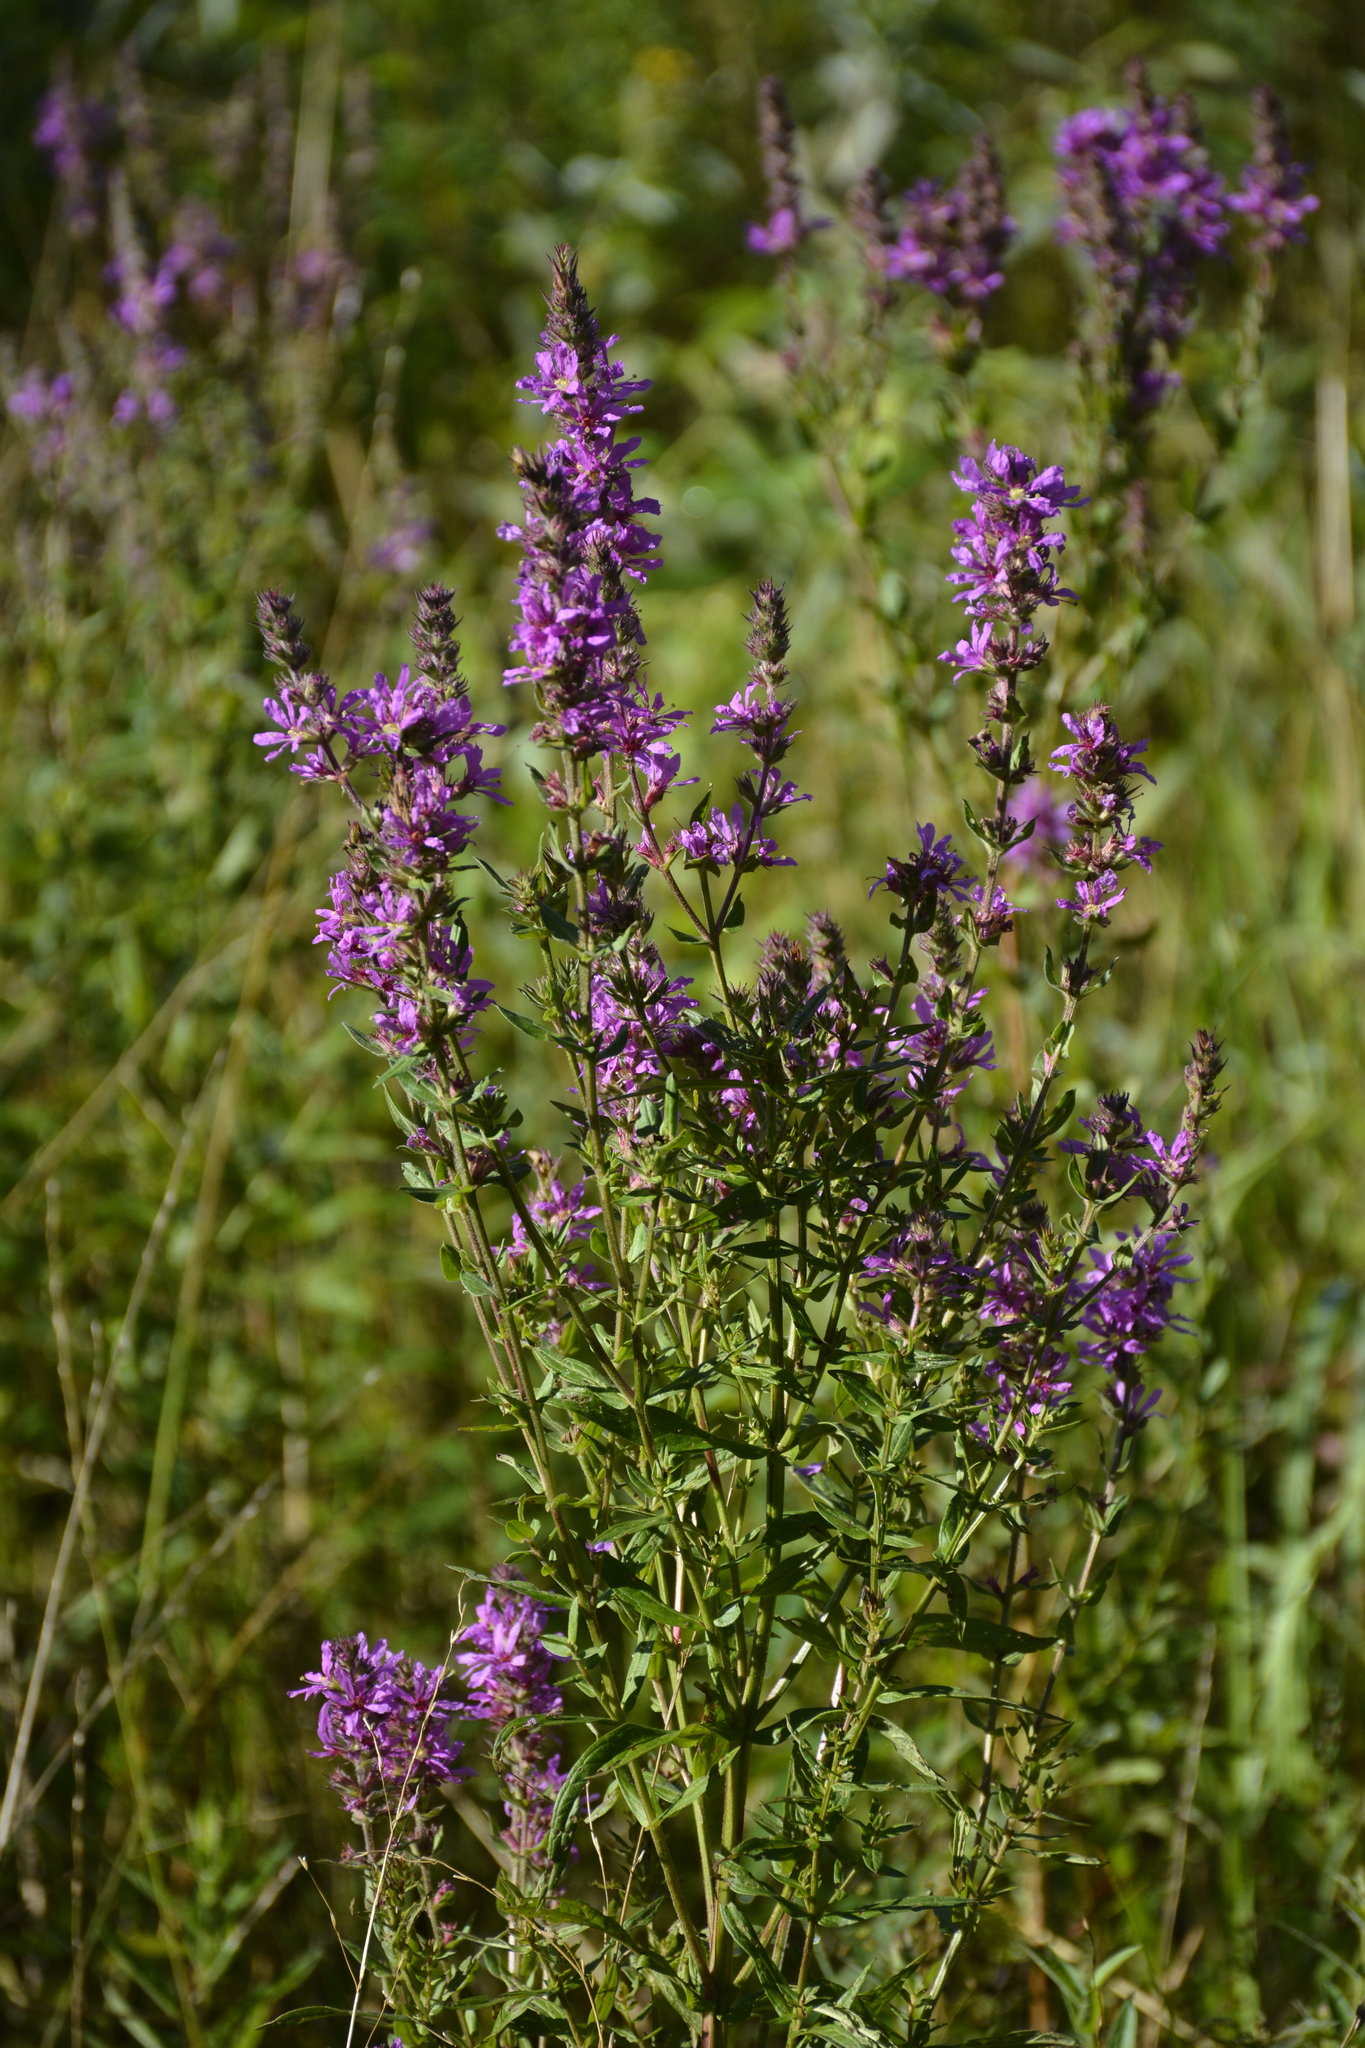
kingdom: Plantae
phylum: Tracheophyta
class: Magnoliopsida
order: Myrtales
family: Lythraceae
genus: Lythrum
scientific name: Lythrum salicaria
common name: Purple loosestrife
